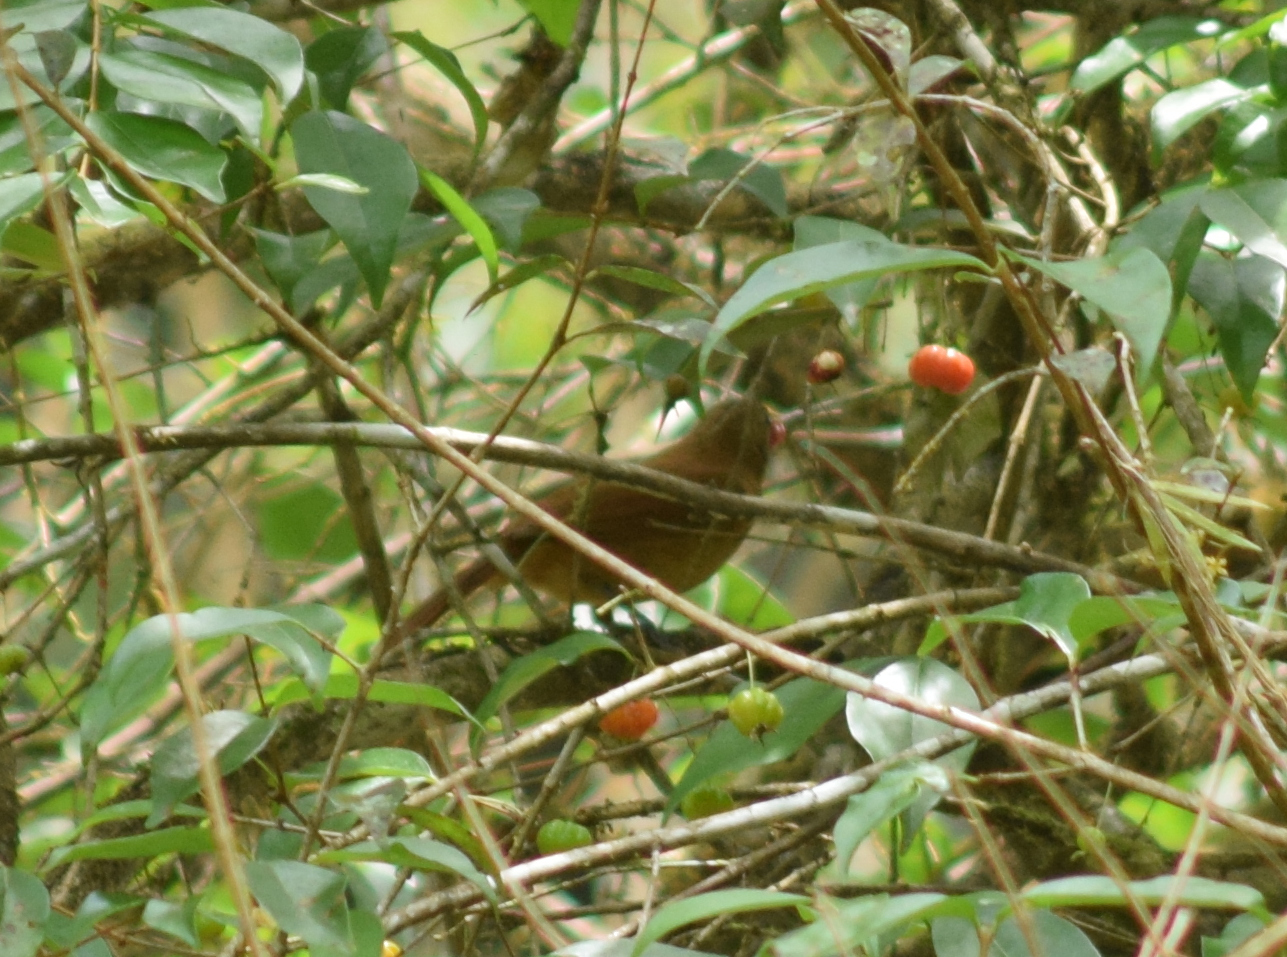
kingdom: Animalia
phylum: Chordata
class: Aves
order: Passeriformes
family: Thraupidae
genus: Tachyphonus
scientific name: Tachyphonus coronatus
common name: Ruby-crowned tanager
